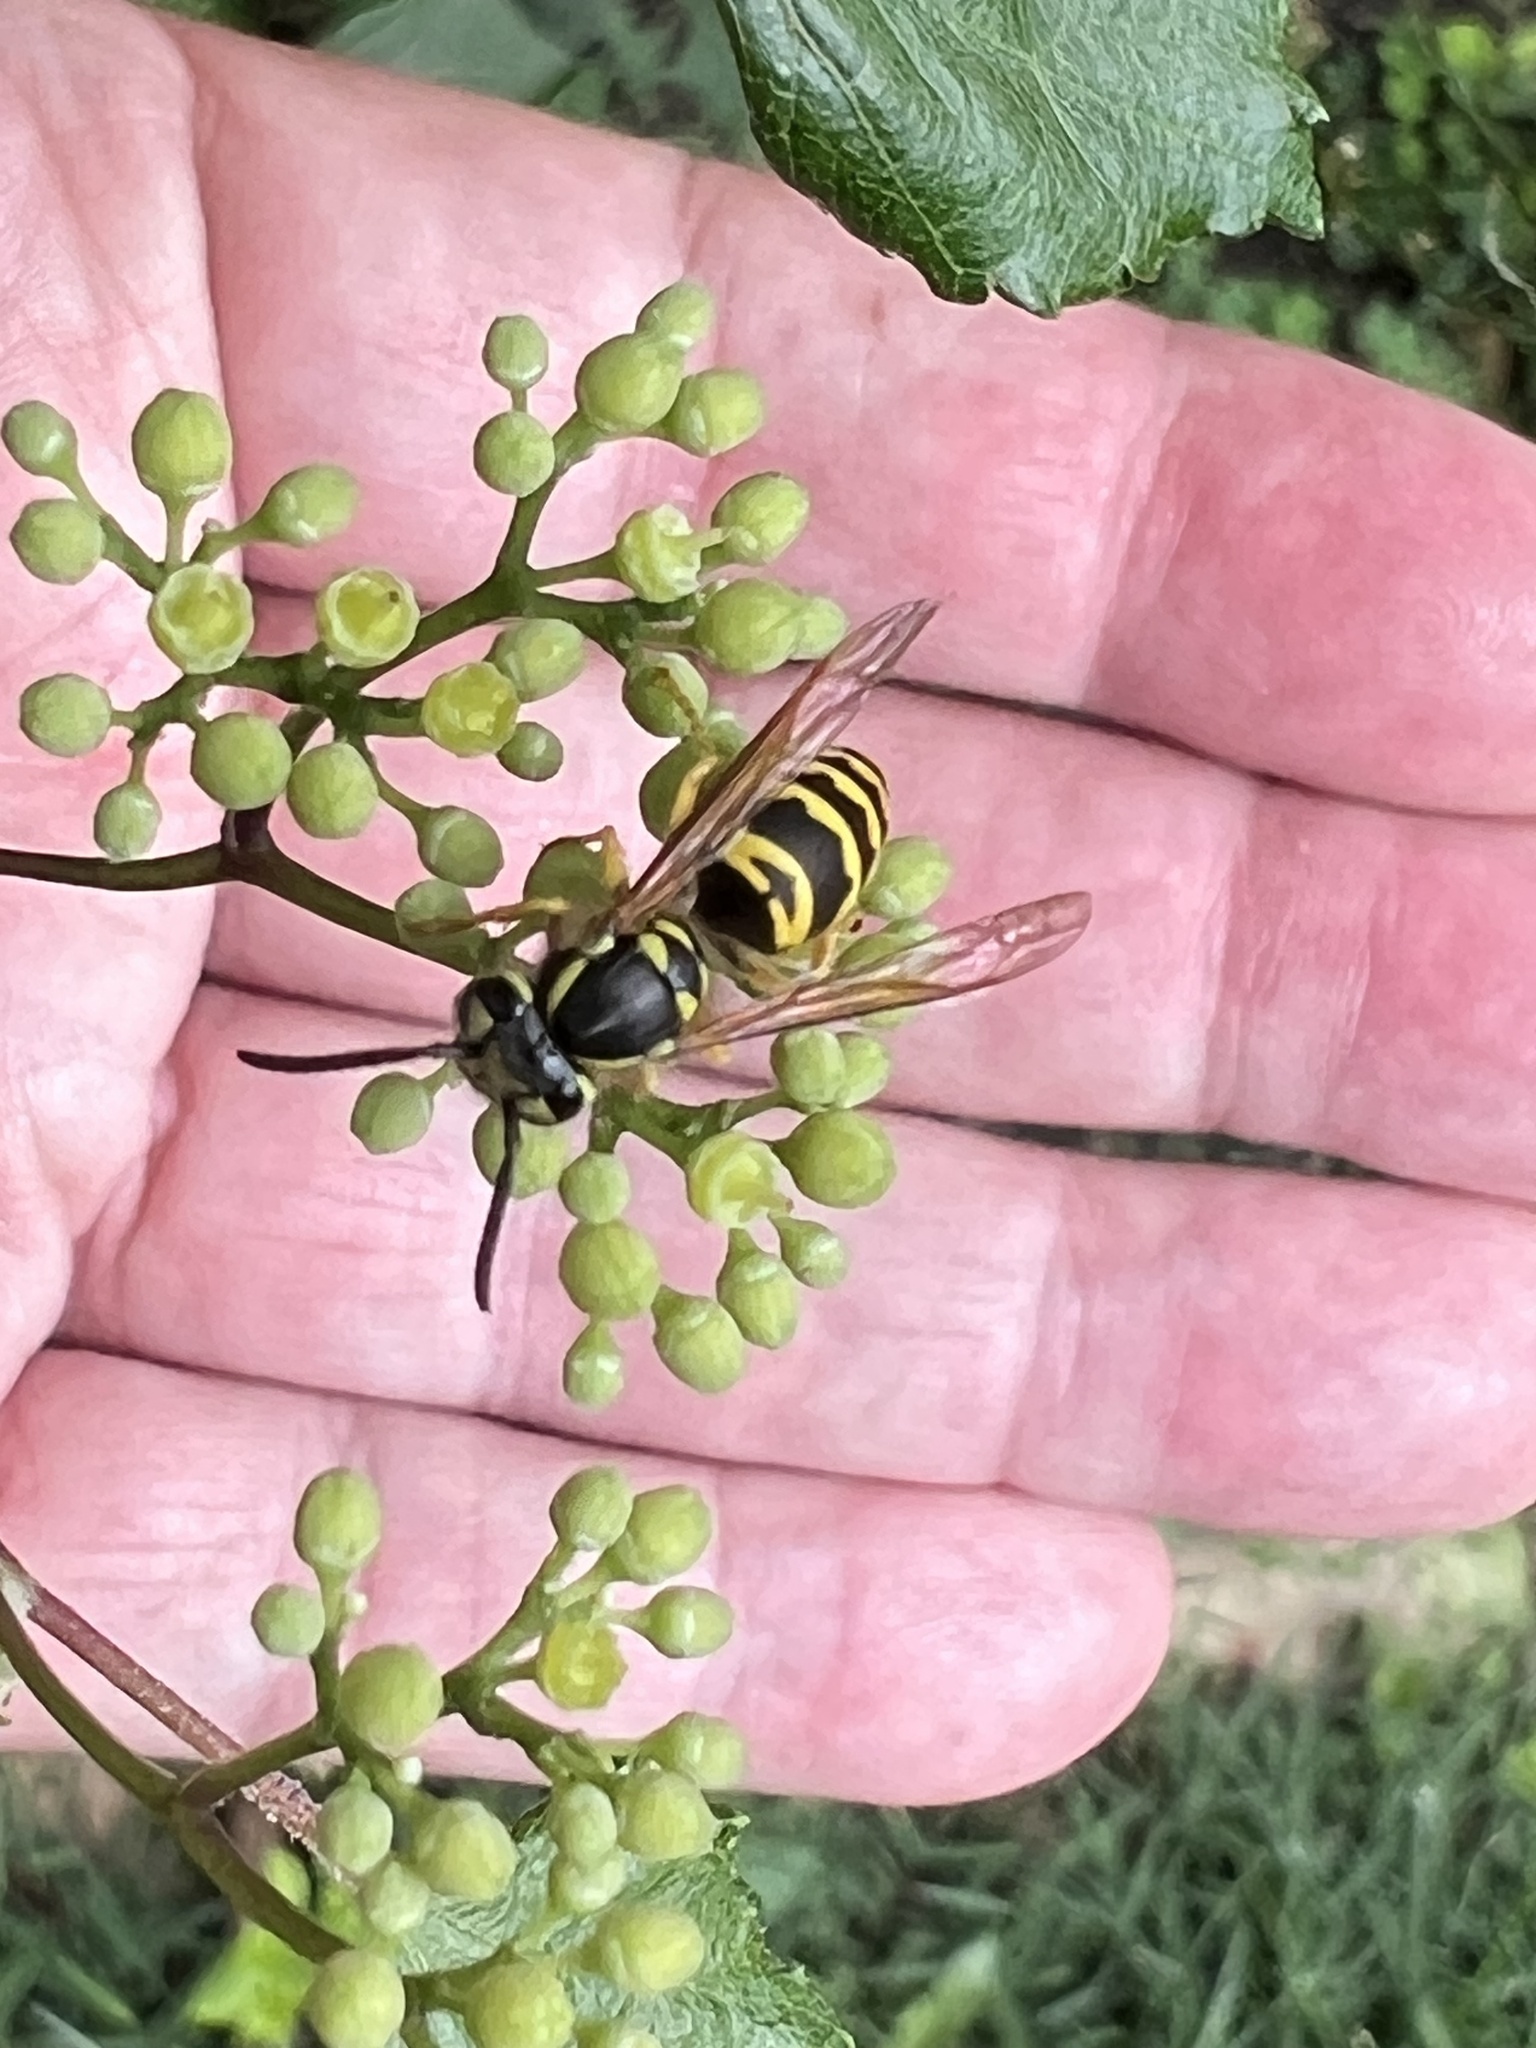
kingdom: Animalia
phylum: Arthropoda
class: Insecta
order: Hymenoptera
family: Vespidae
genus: Vespula
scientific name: Vespula maculifrons
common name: Eastern yellowjacket
